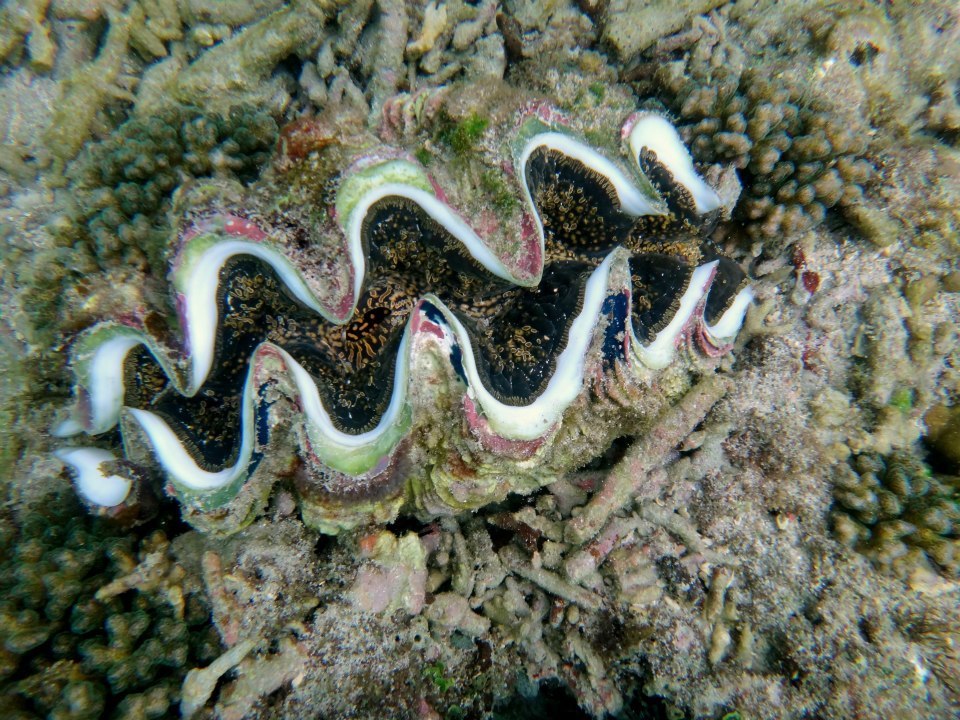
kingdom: Animalia
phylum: Mollusca
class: Bivalvia
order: Cardiida
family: Cardiidae
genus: Tridacna
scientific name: Tridacna noae
